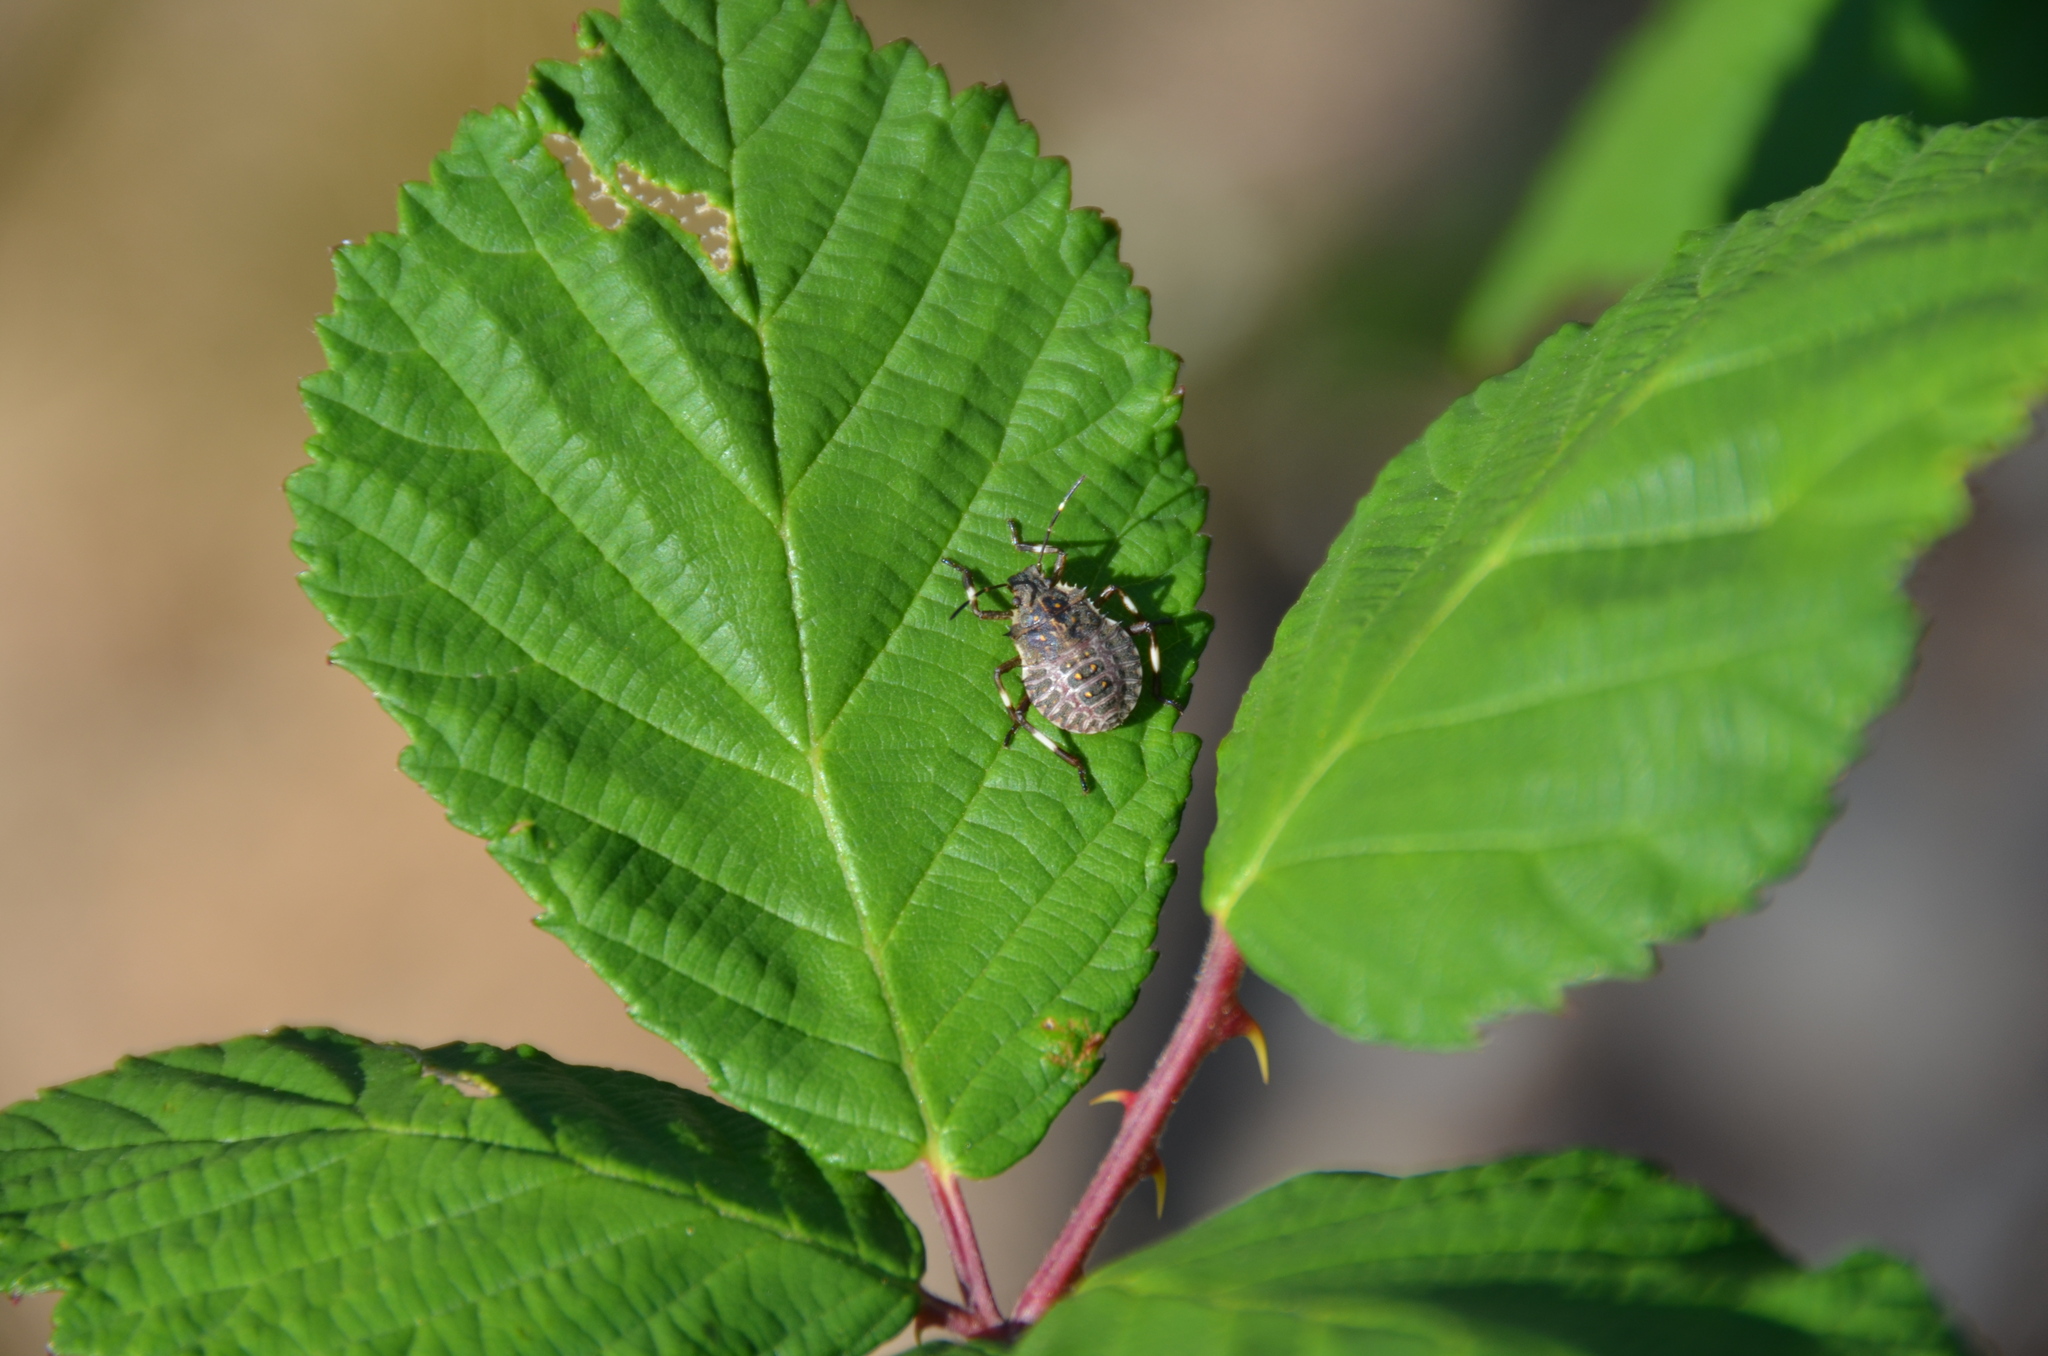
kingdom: Animalia
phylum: Arthropoda
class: Insecta
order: Hemiptera
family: Pentatomidae
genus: Halyomorpha
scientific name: Halyomorpha halys
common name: Brown marmorated stink bug
